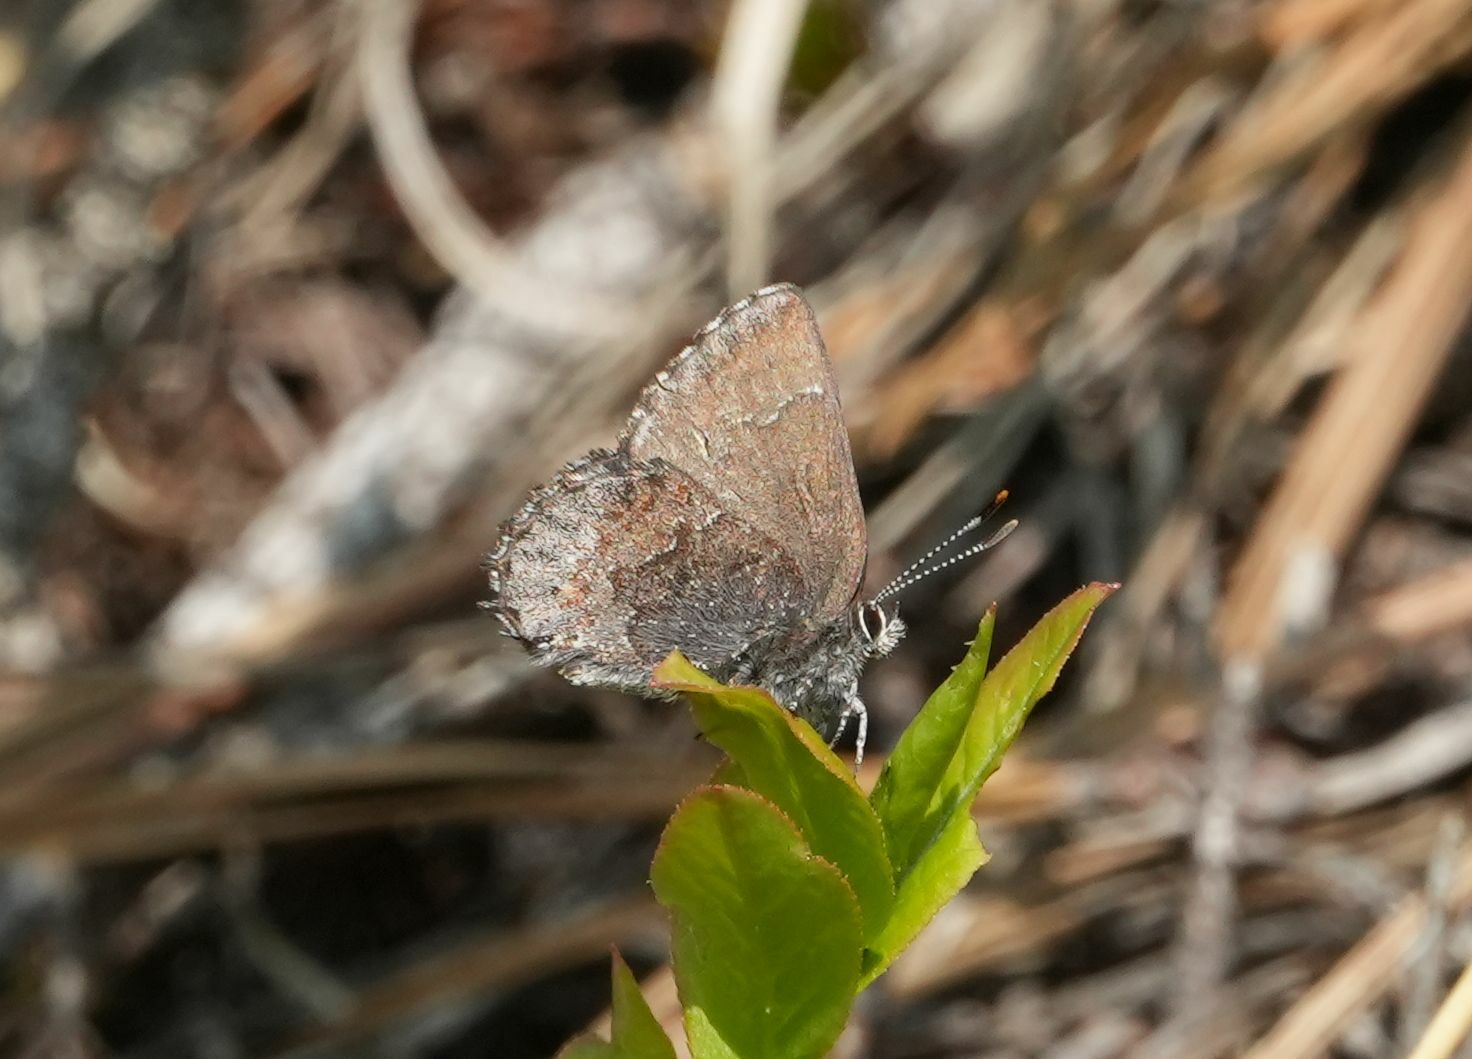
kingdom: Animalia
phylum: Arthropoda
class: Insecta
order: Lepidoptera
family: Lycaenidae
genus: Callophrys
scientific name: Callophrys polios
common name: Hoary elfin
